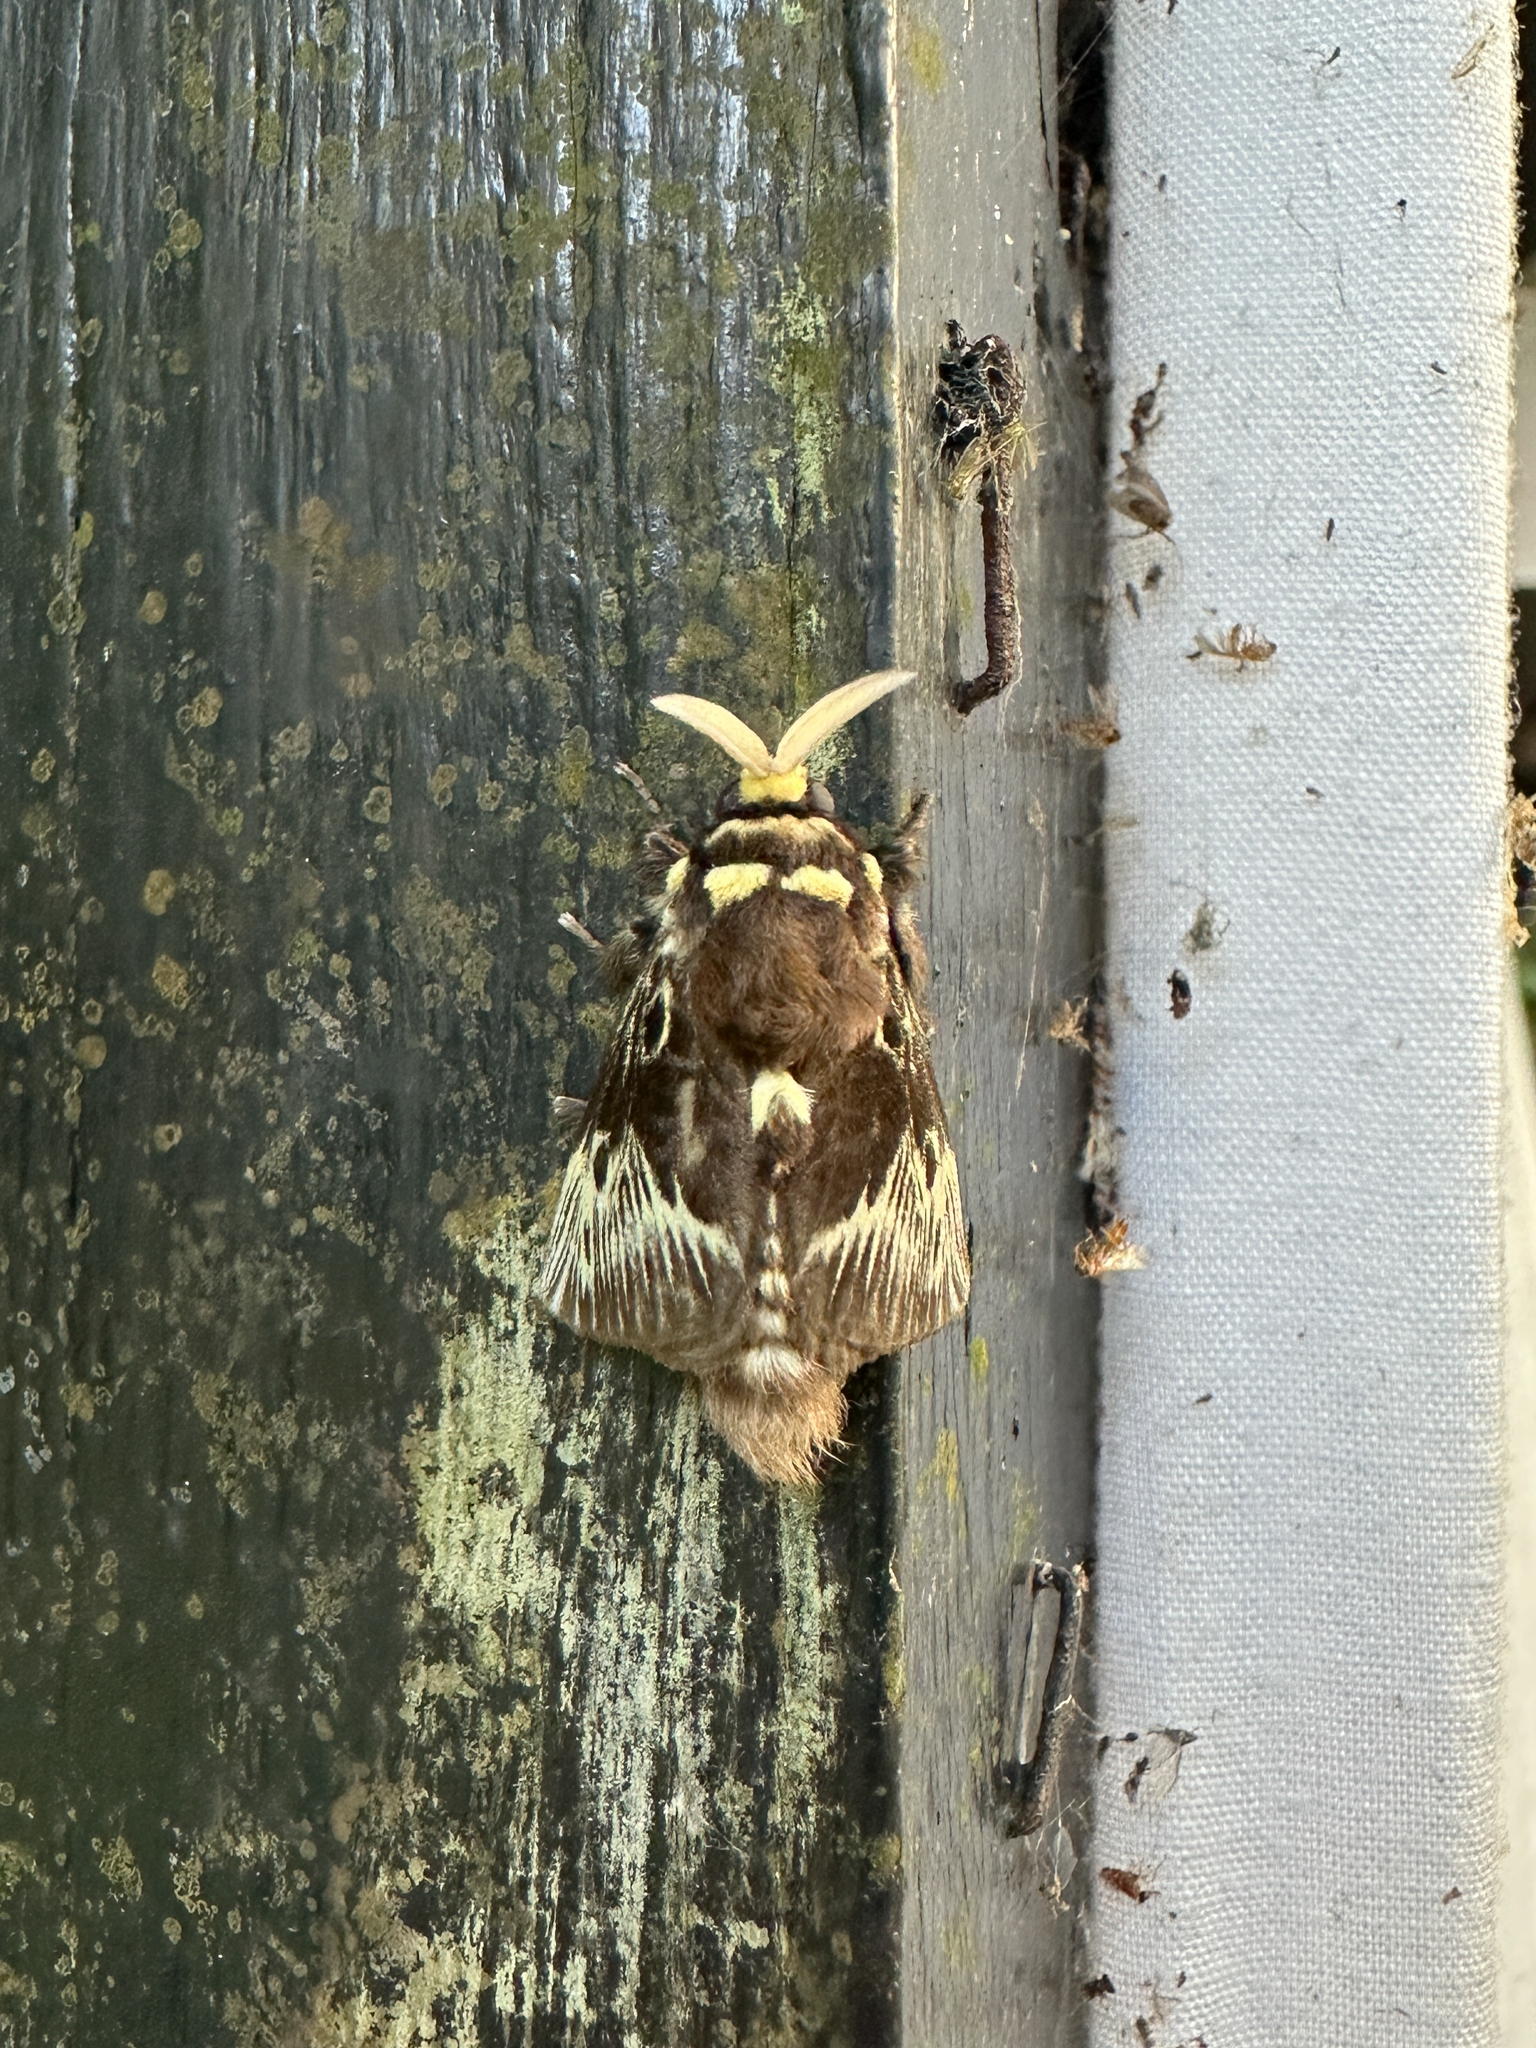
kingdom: Animalia
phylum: Arthropoda
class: Insecta
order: Lepidoptera
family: Megalopygidae
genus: Megalopyge
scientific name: Megalopyge albicollis
